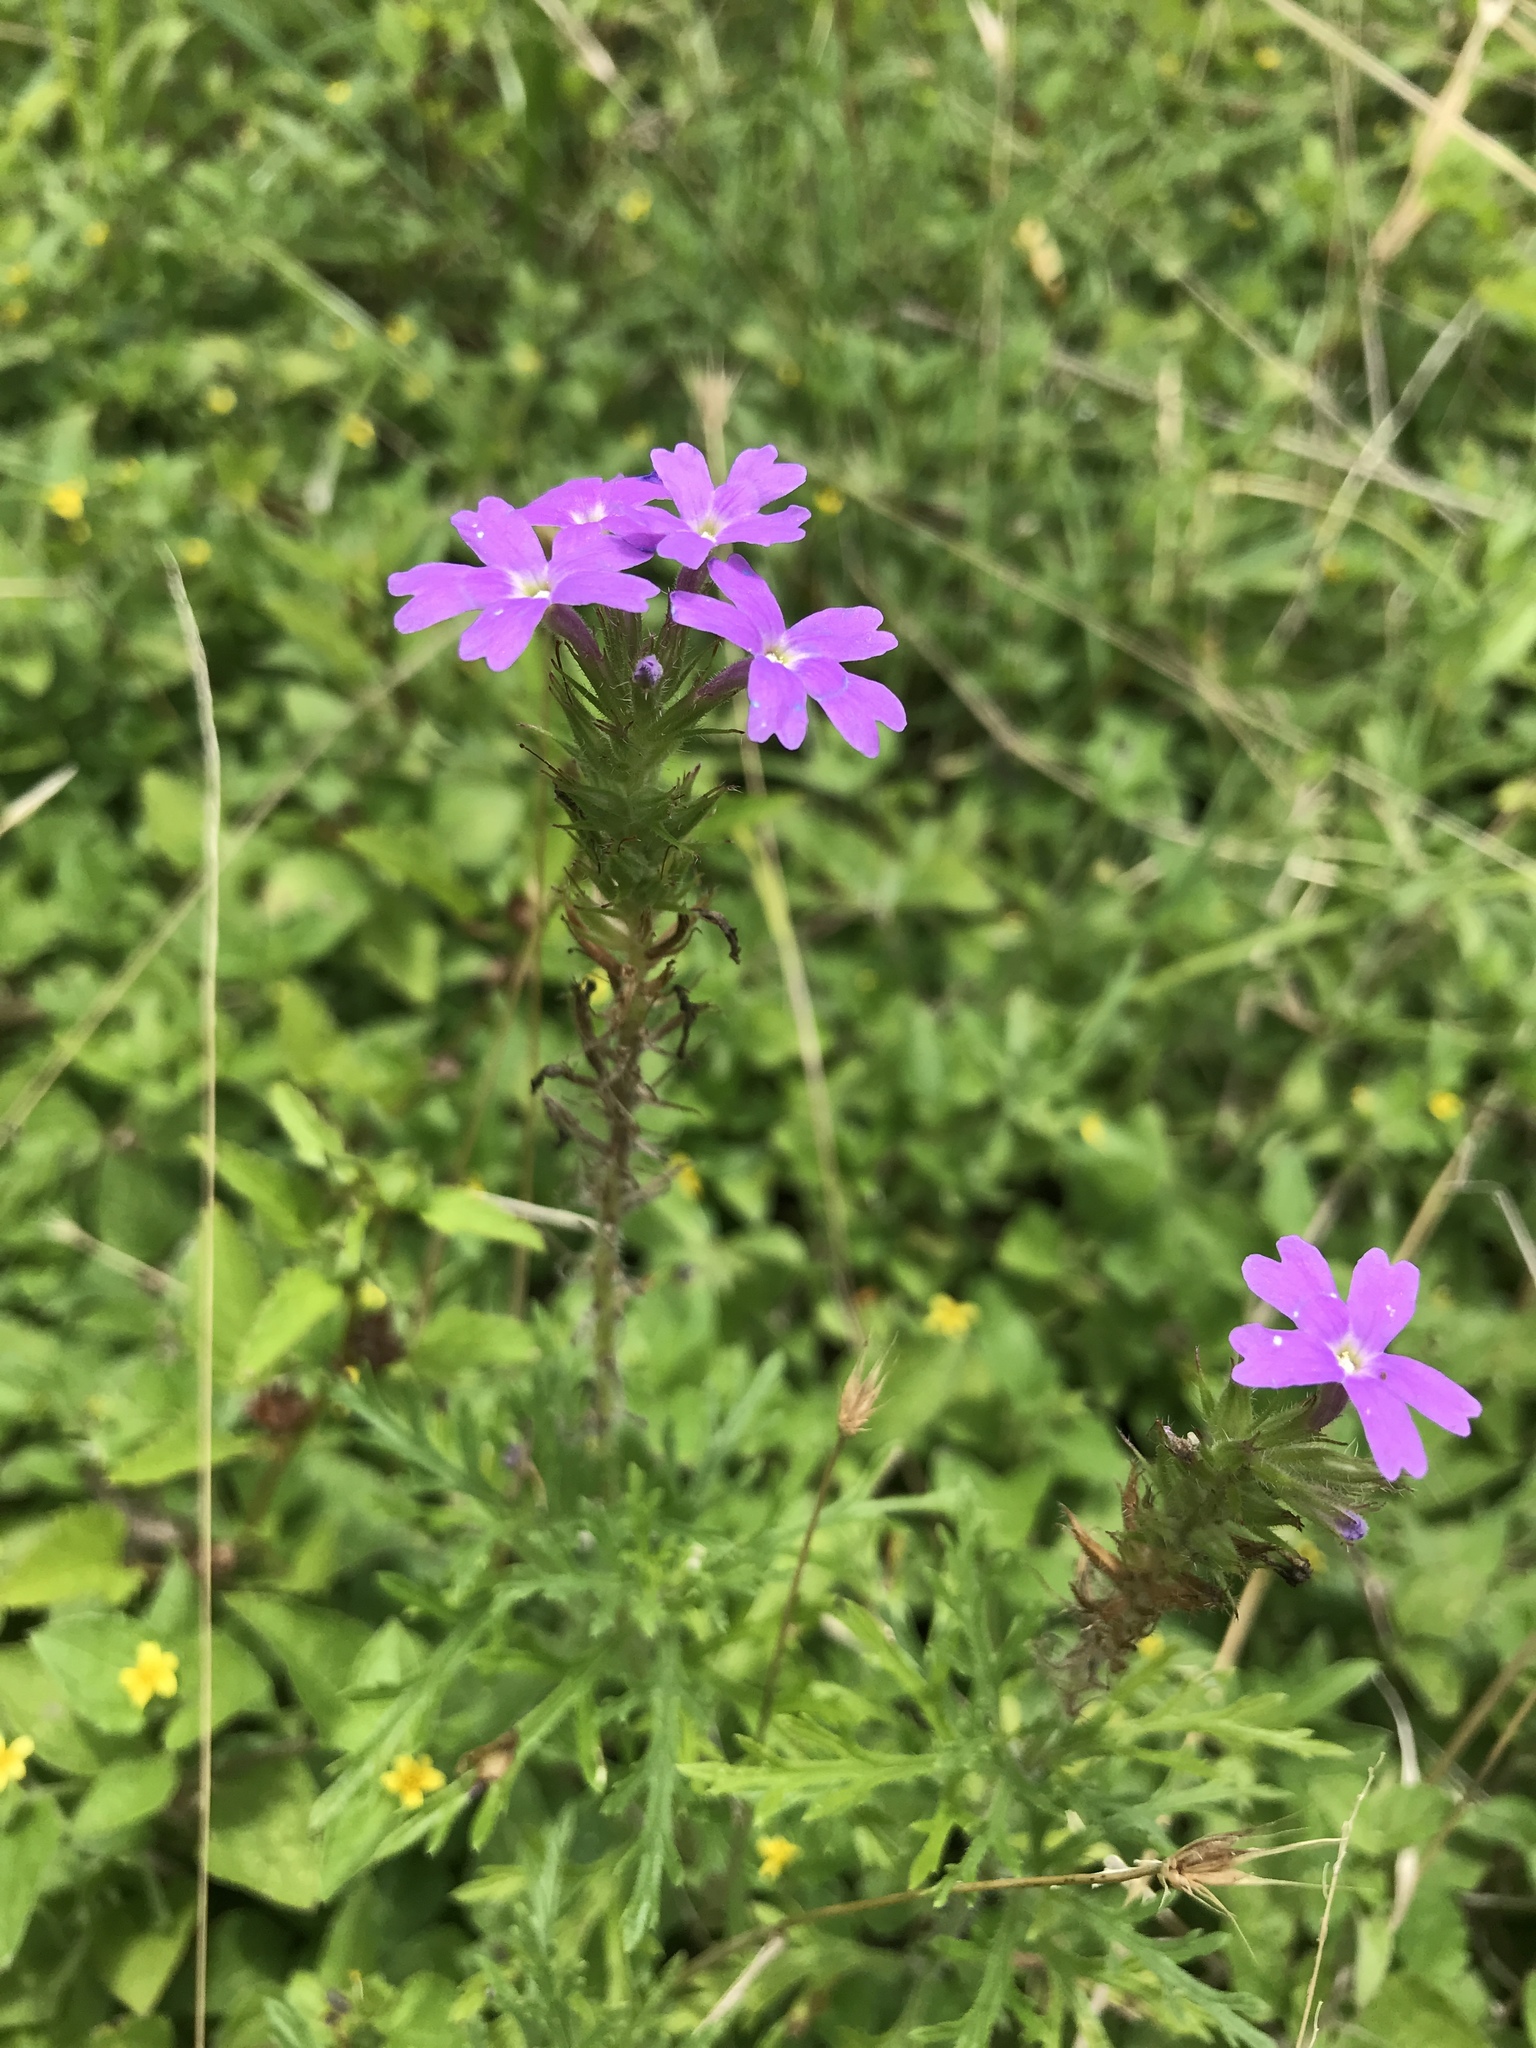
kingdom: Plantae
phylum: Tracheophyta
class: Magnoliopsida
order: Lamiales
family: Verbenaceae
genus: Verbena
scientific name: Verbena bipinnatifida
